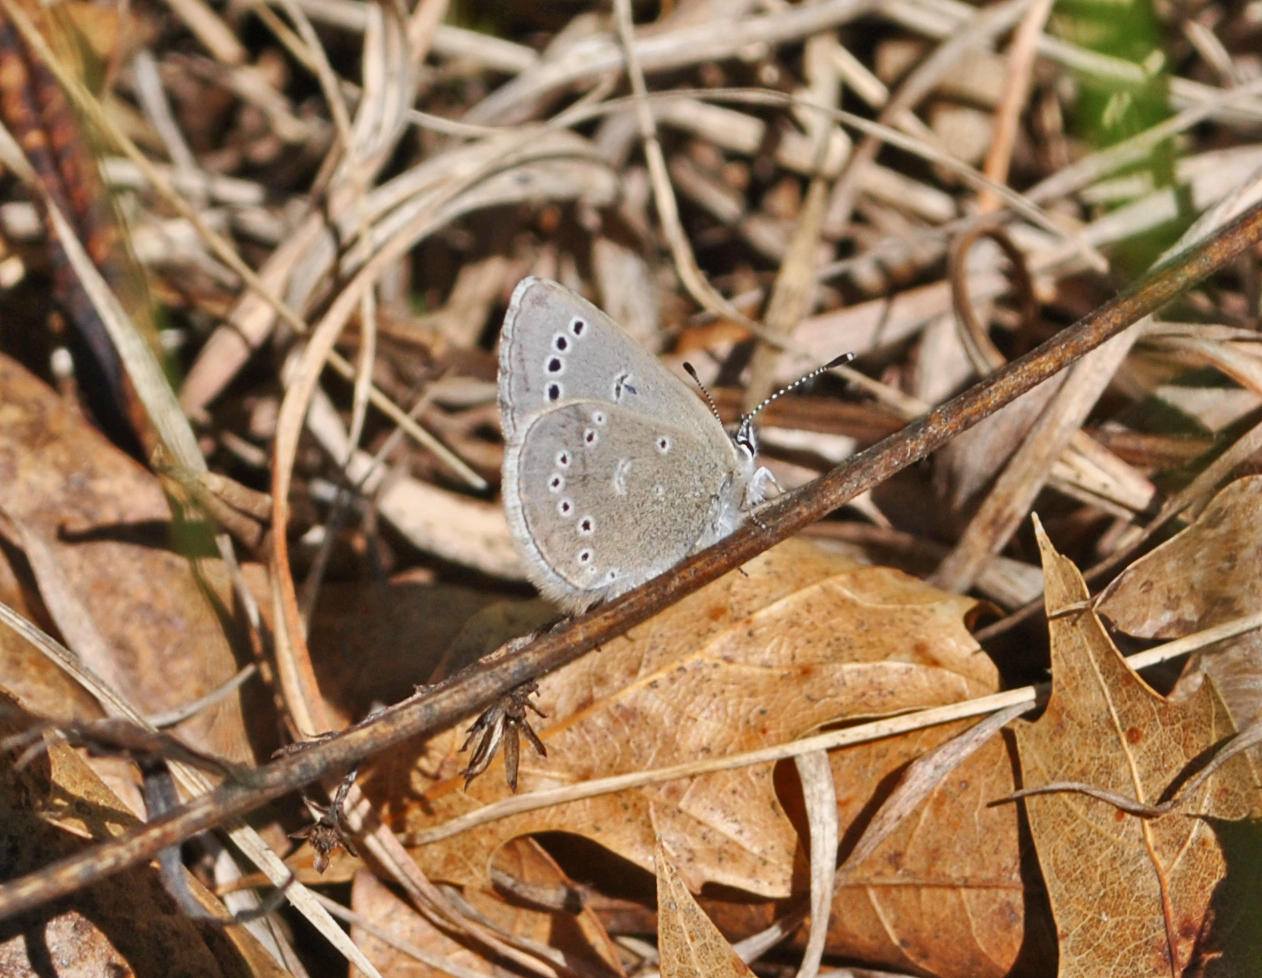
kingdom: Animalia
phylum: Arthropoda
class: Insecta
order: Lepidoptera
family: Lycaenidae
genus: Glaucopsyche
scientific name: Glaucopsyche lygdamus
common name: Silvery blue
